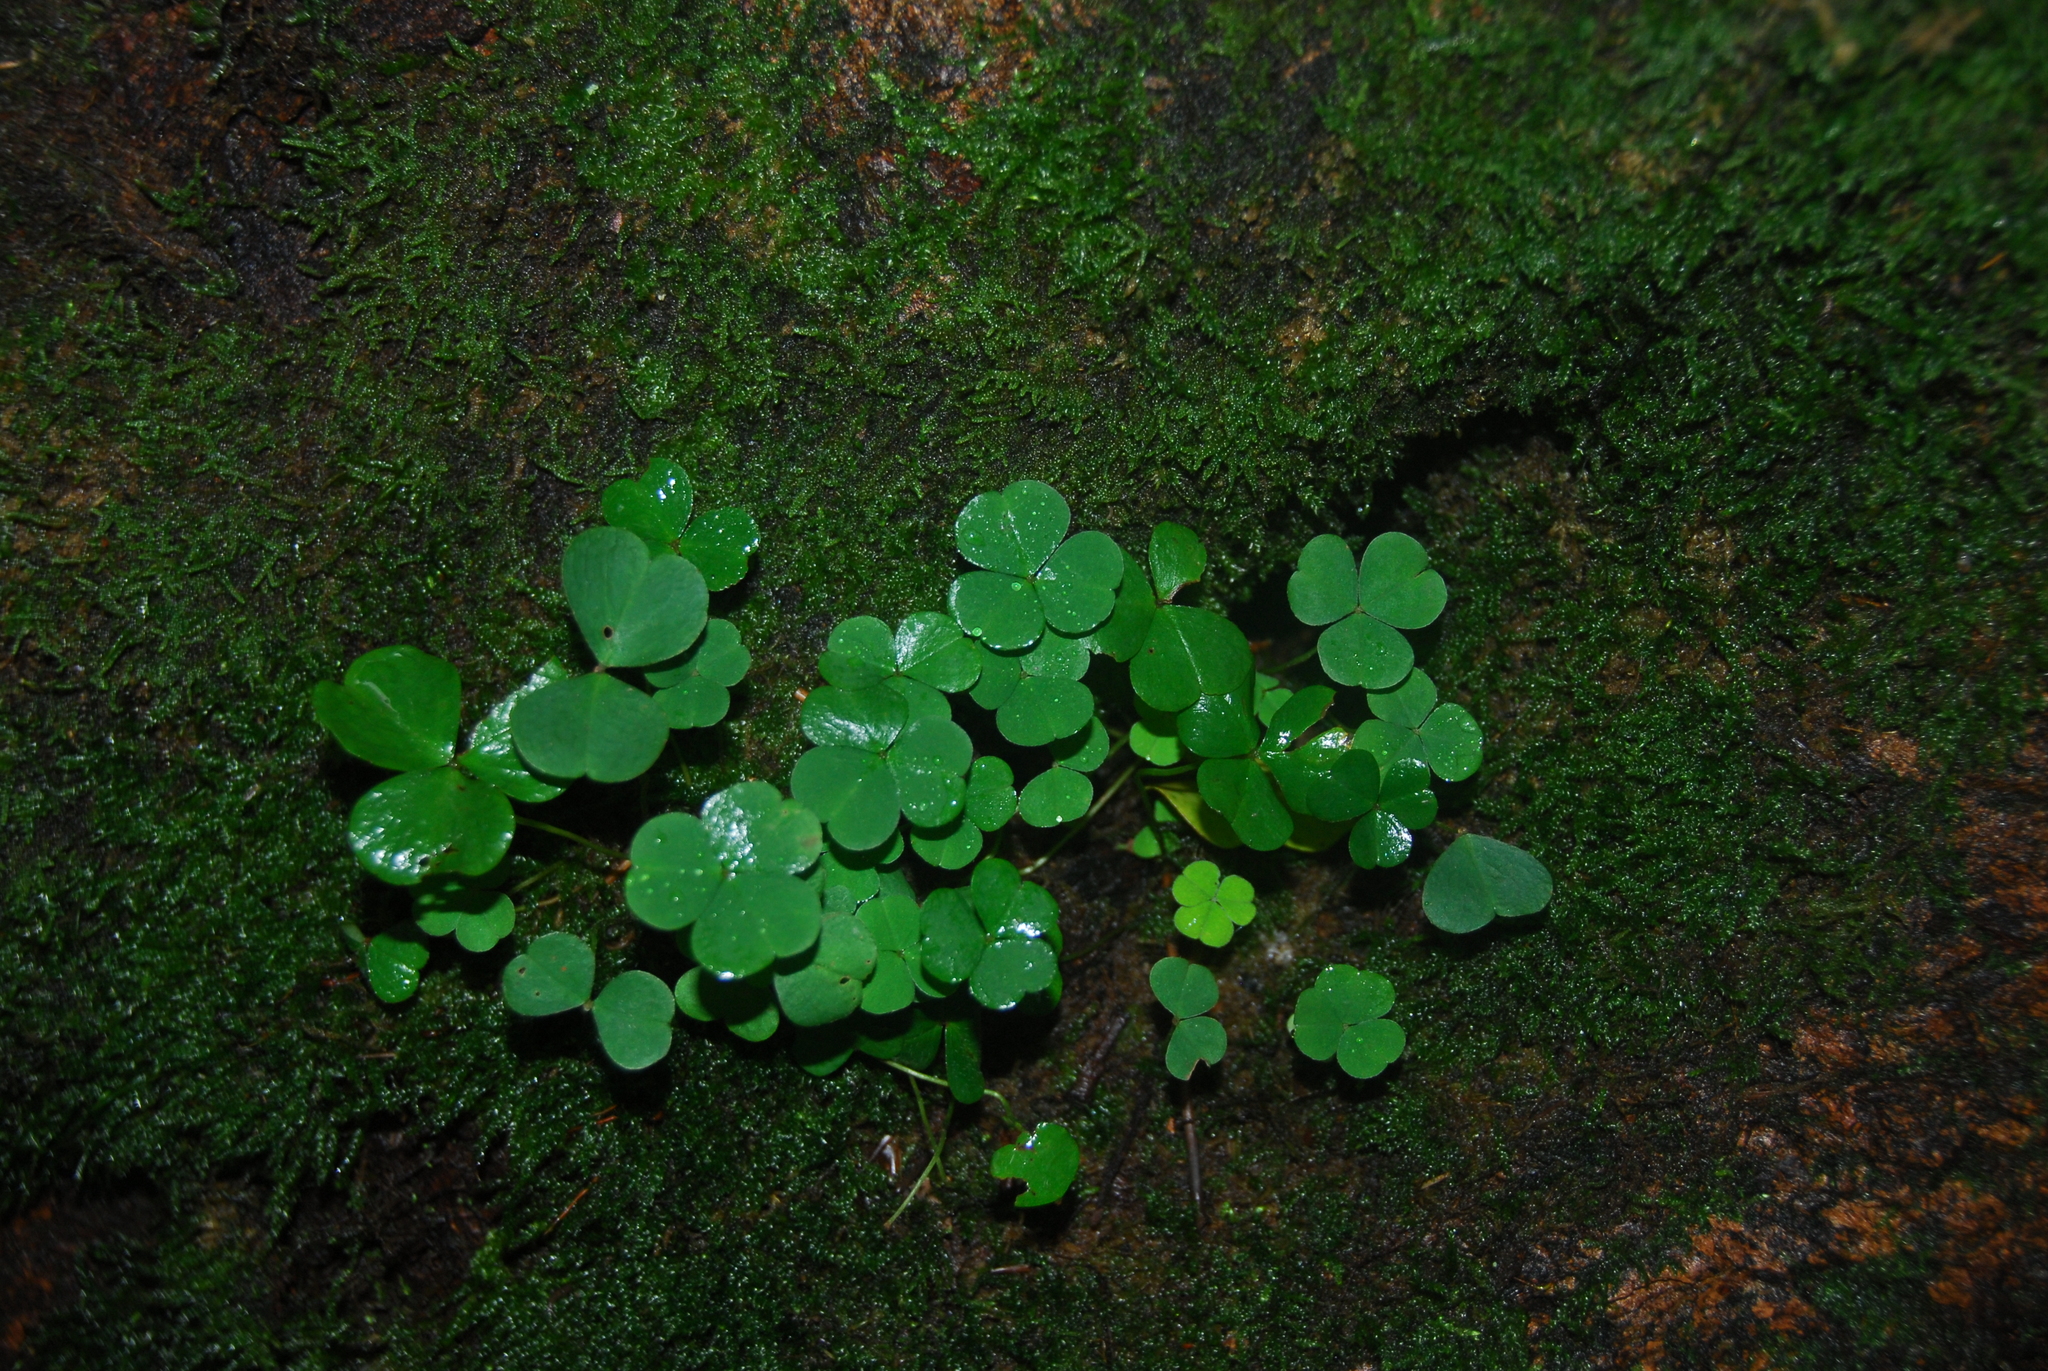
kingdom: Plantae
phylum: Tracheophyta
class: Magnoliopsida
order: Oxalidales
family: Oxalidaceae
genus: Oxalis
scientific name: Oxalis acetosella
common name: Wood-sorrel
